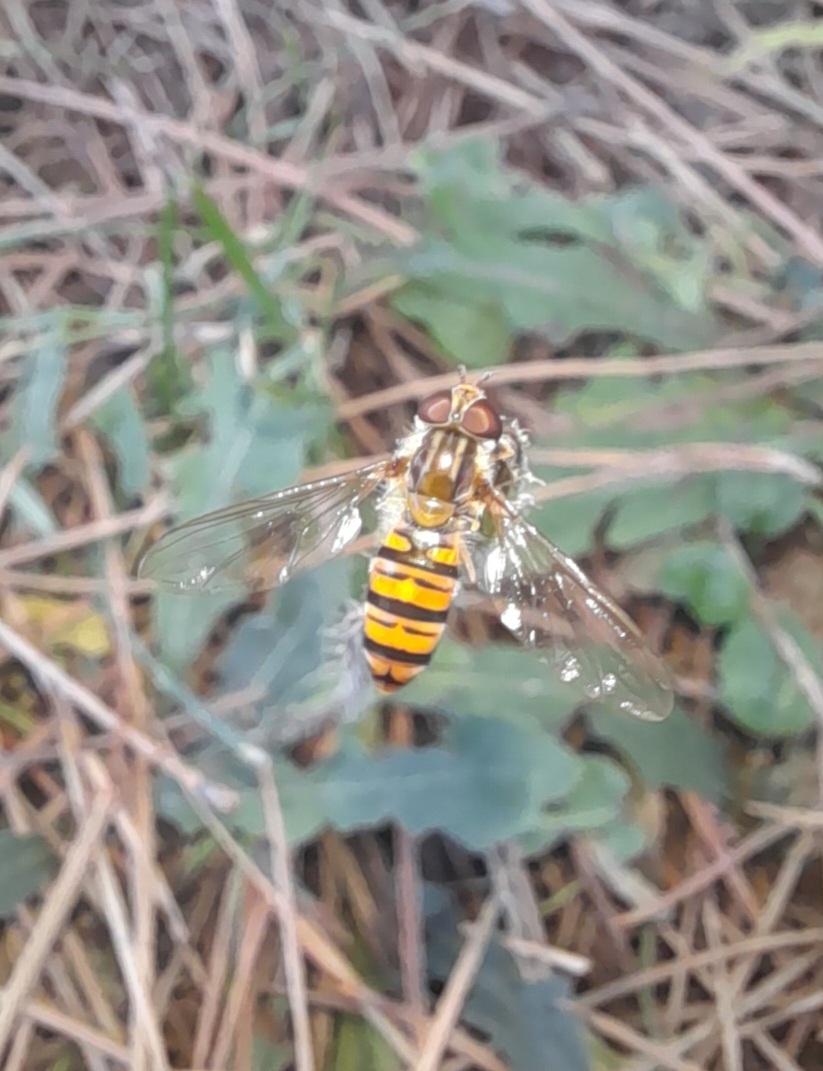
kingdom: Animalia
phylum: Arthropoda
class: Insecta
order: Diptera
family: Syrphidae
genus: Episyrphus
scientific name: Episyrphus balteatus
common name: Marmalade hoverfly
